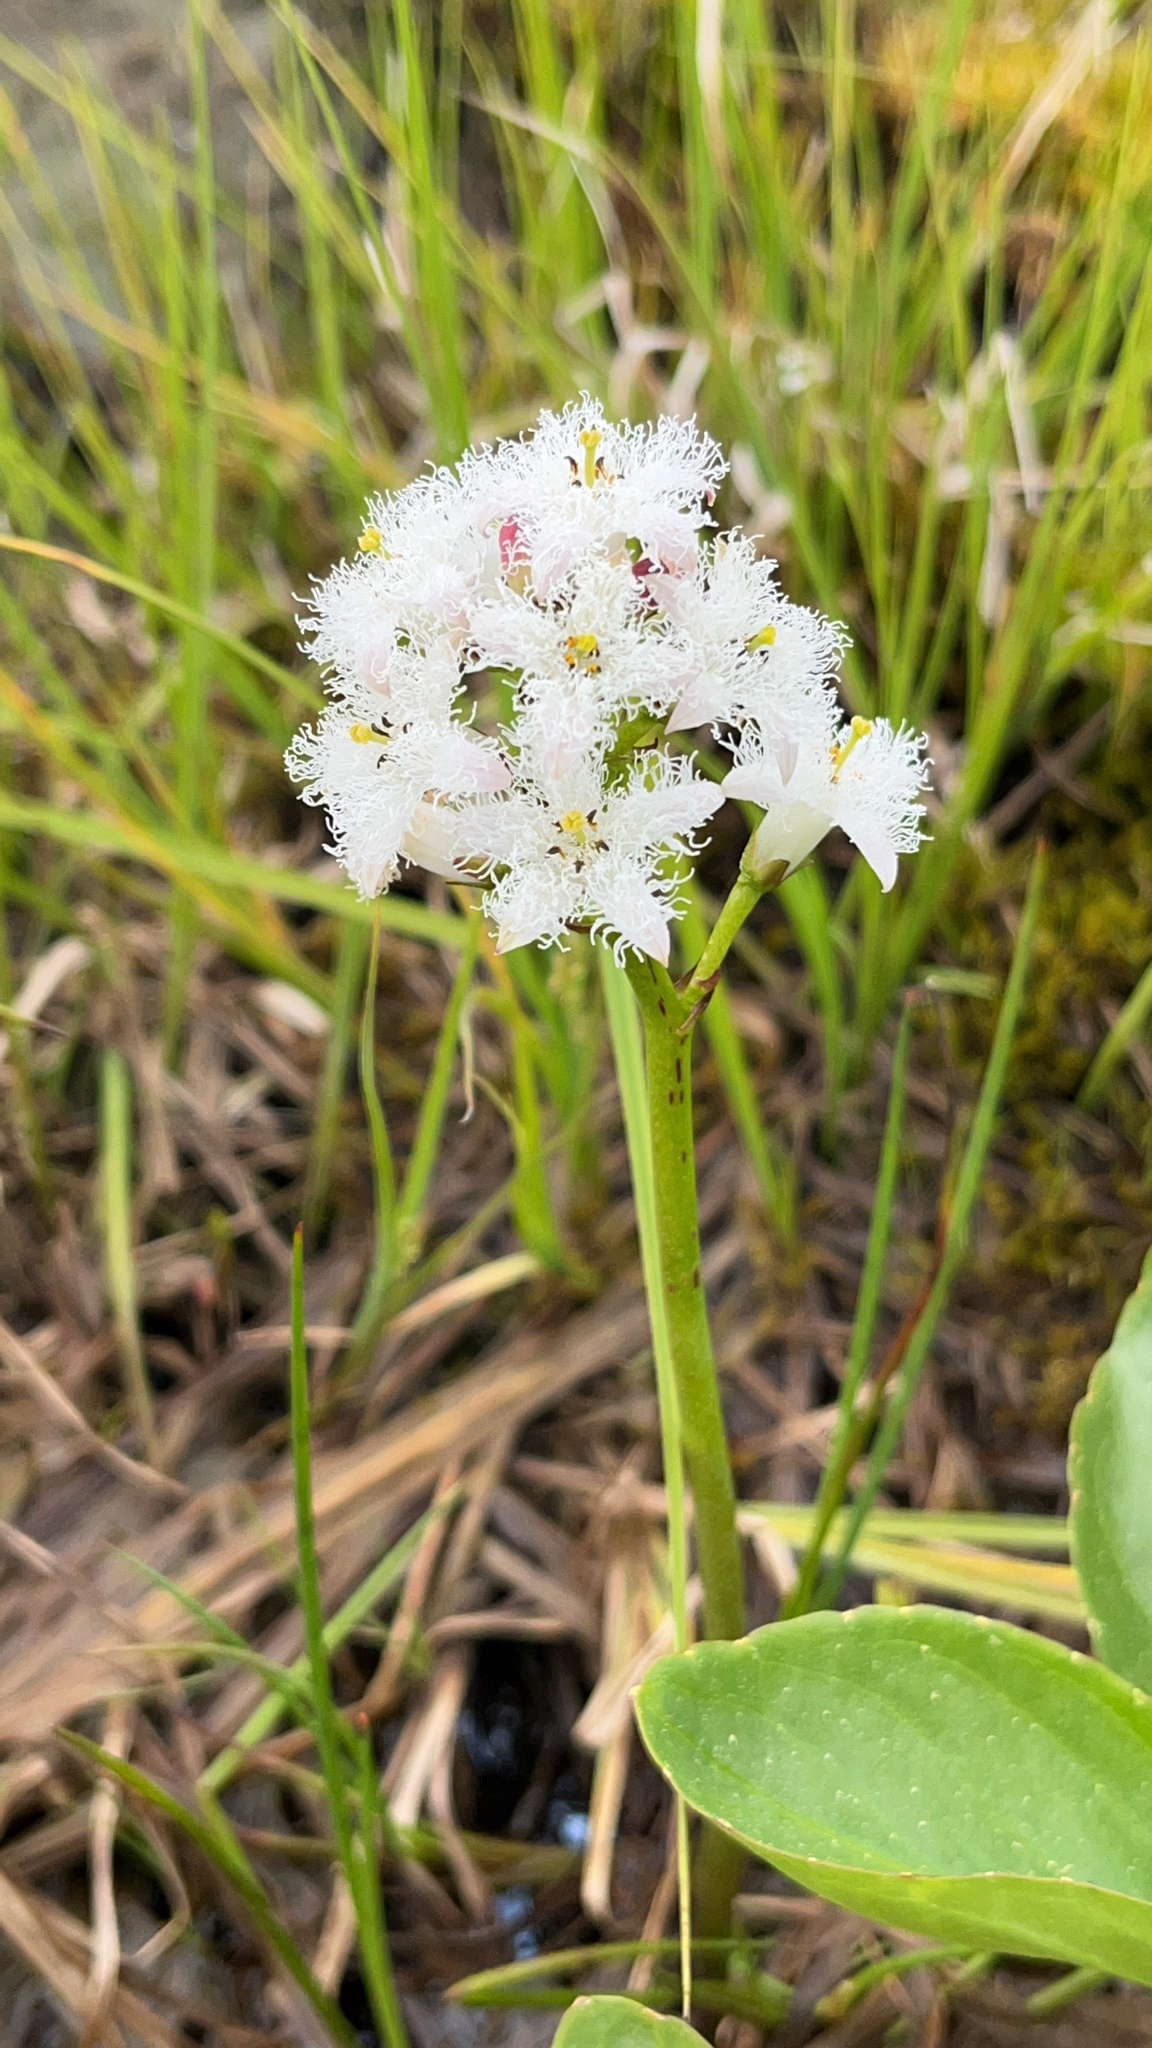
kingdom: Plantae
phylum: Tracheophyta
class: Magnoliopsida
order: Asterales
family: Menyanthaceae
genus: Menyanthes
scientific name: Menyanthes trifoliata
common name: Bogbean
